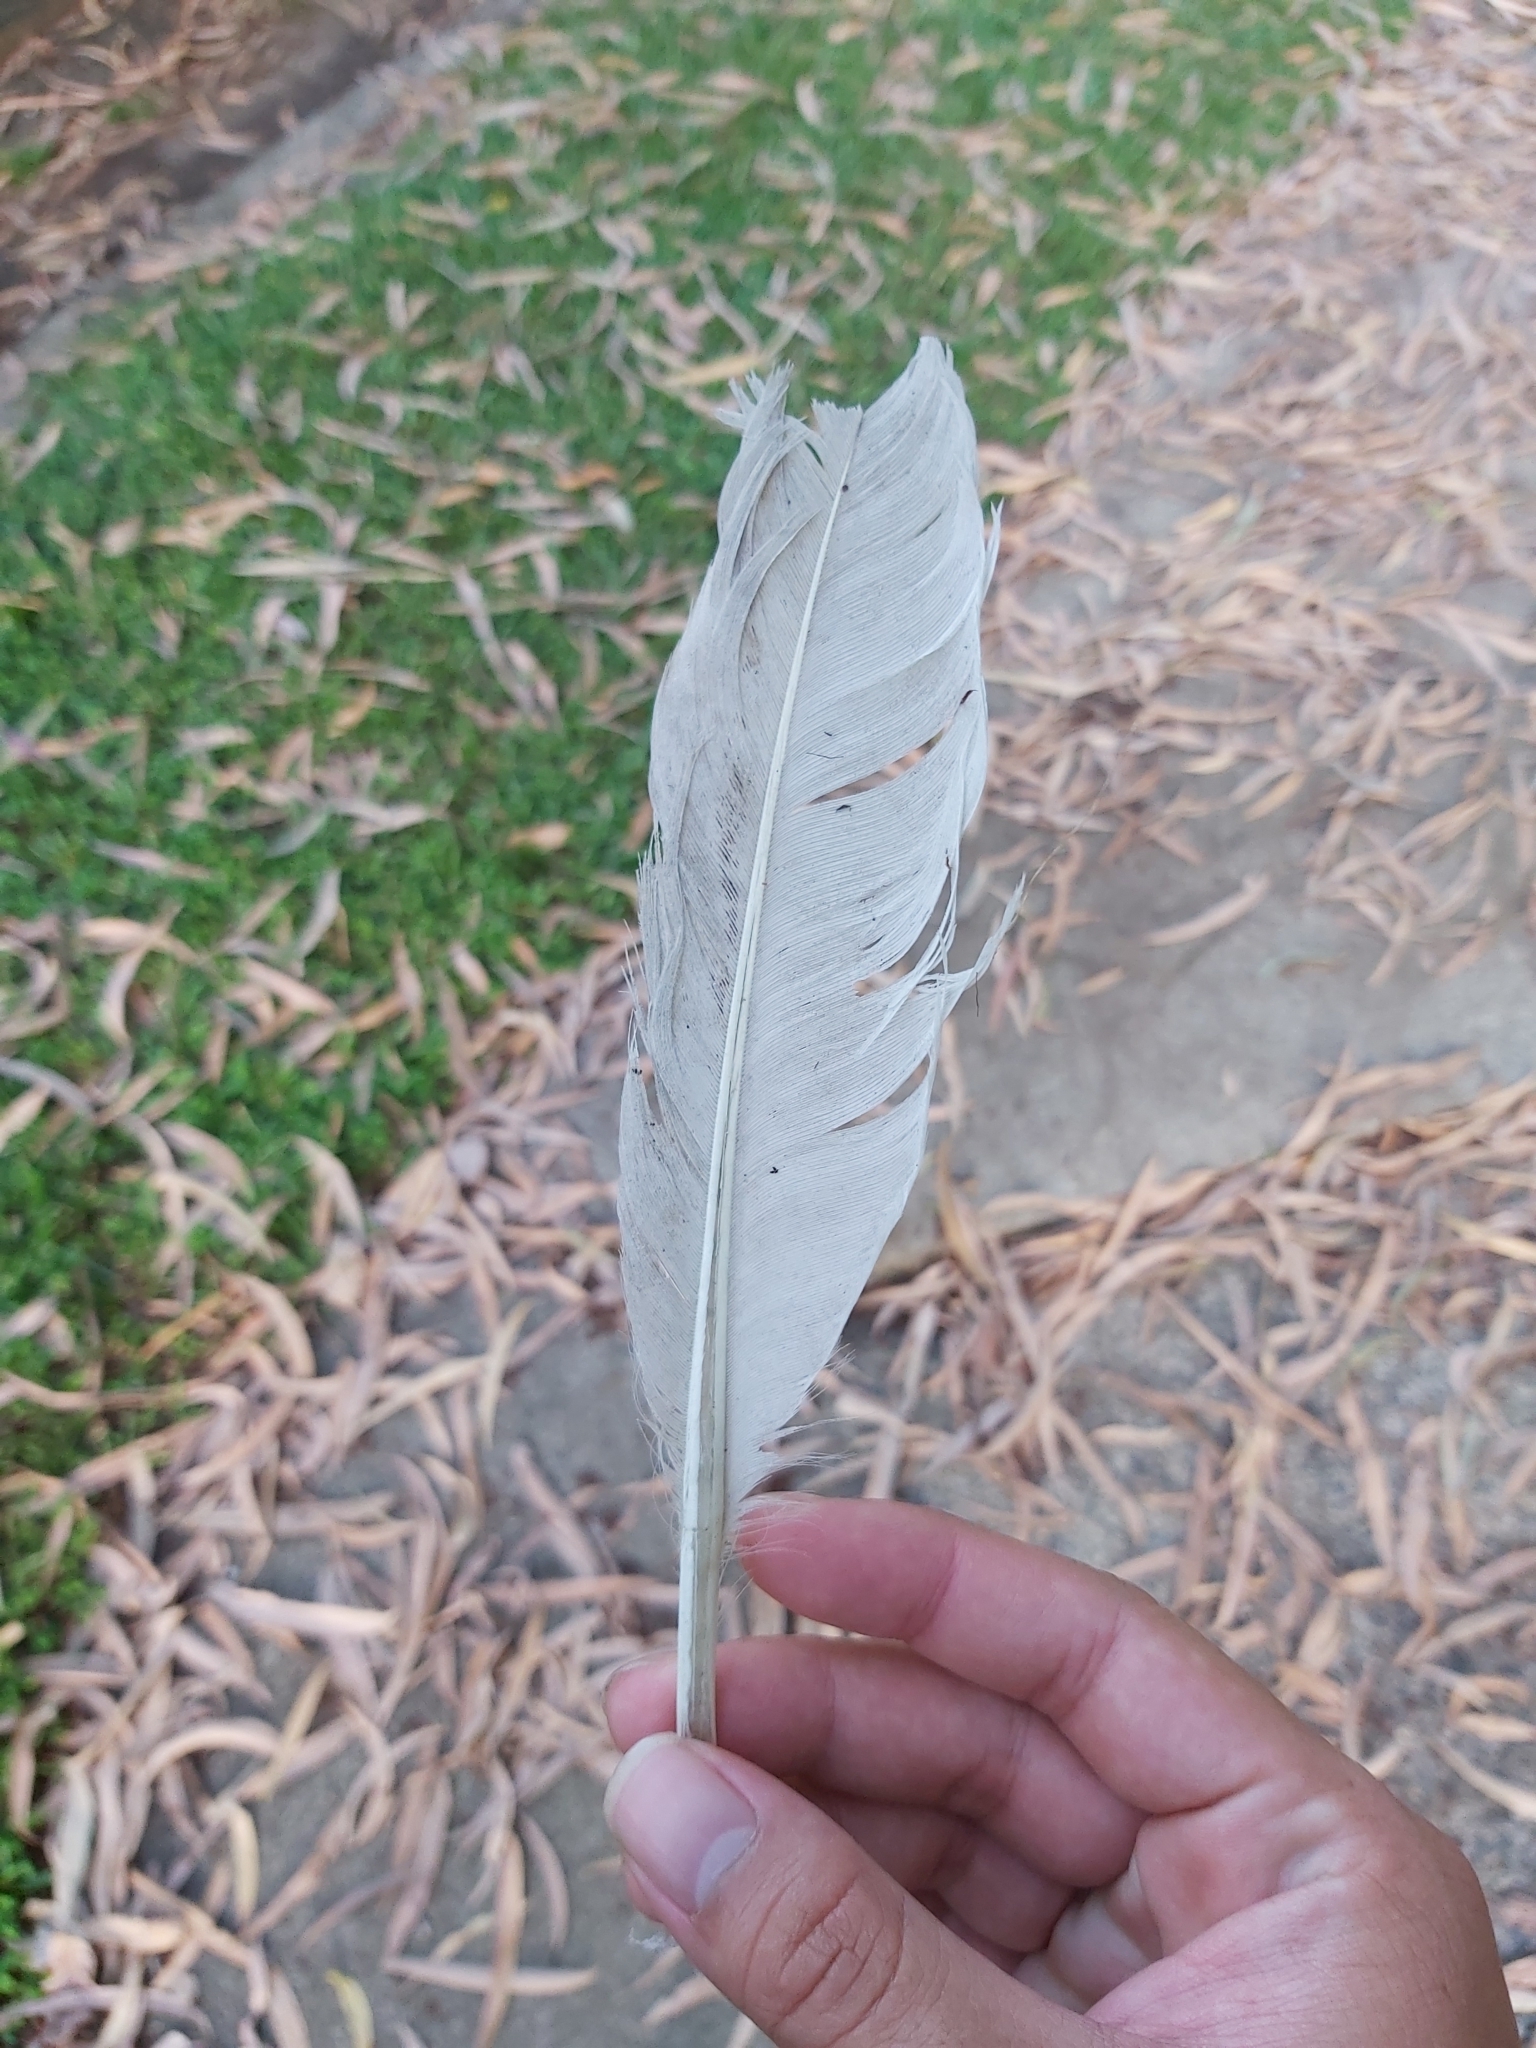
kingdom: Animalia
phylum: Chordata
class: Aves
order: Pelecaniformes
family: Threskiornithidae
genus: Threskiornis
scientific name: Threskiornis molucca
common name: Australian white ibis
